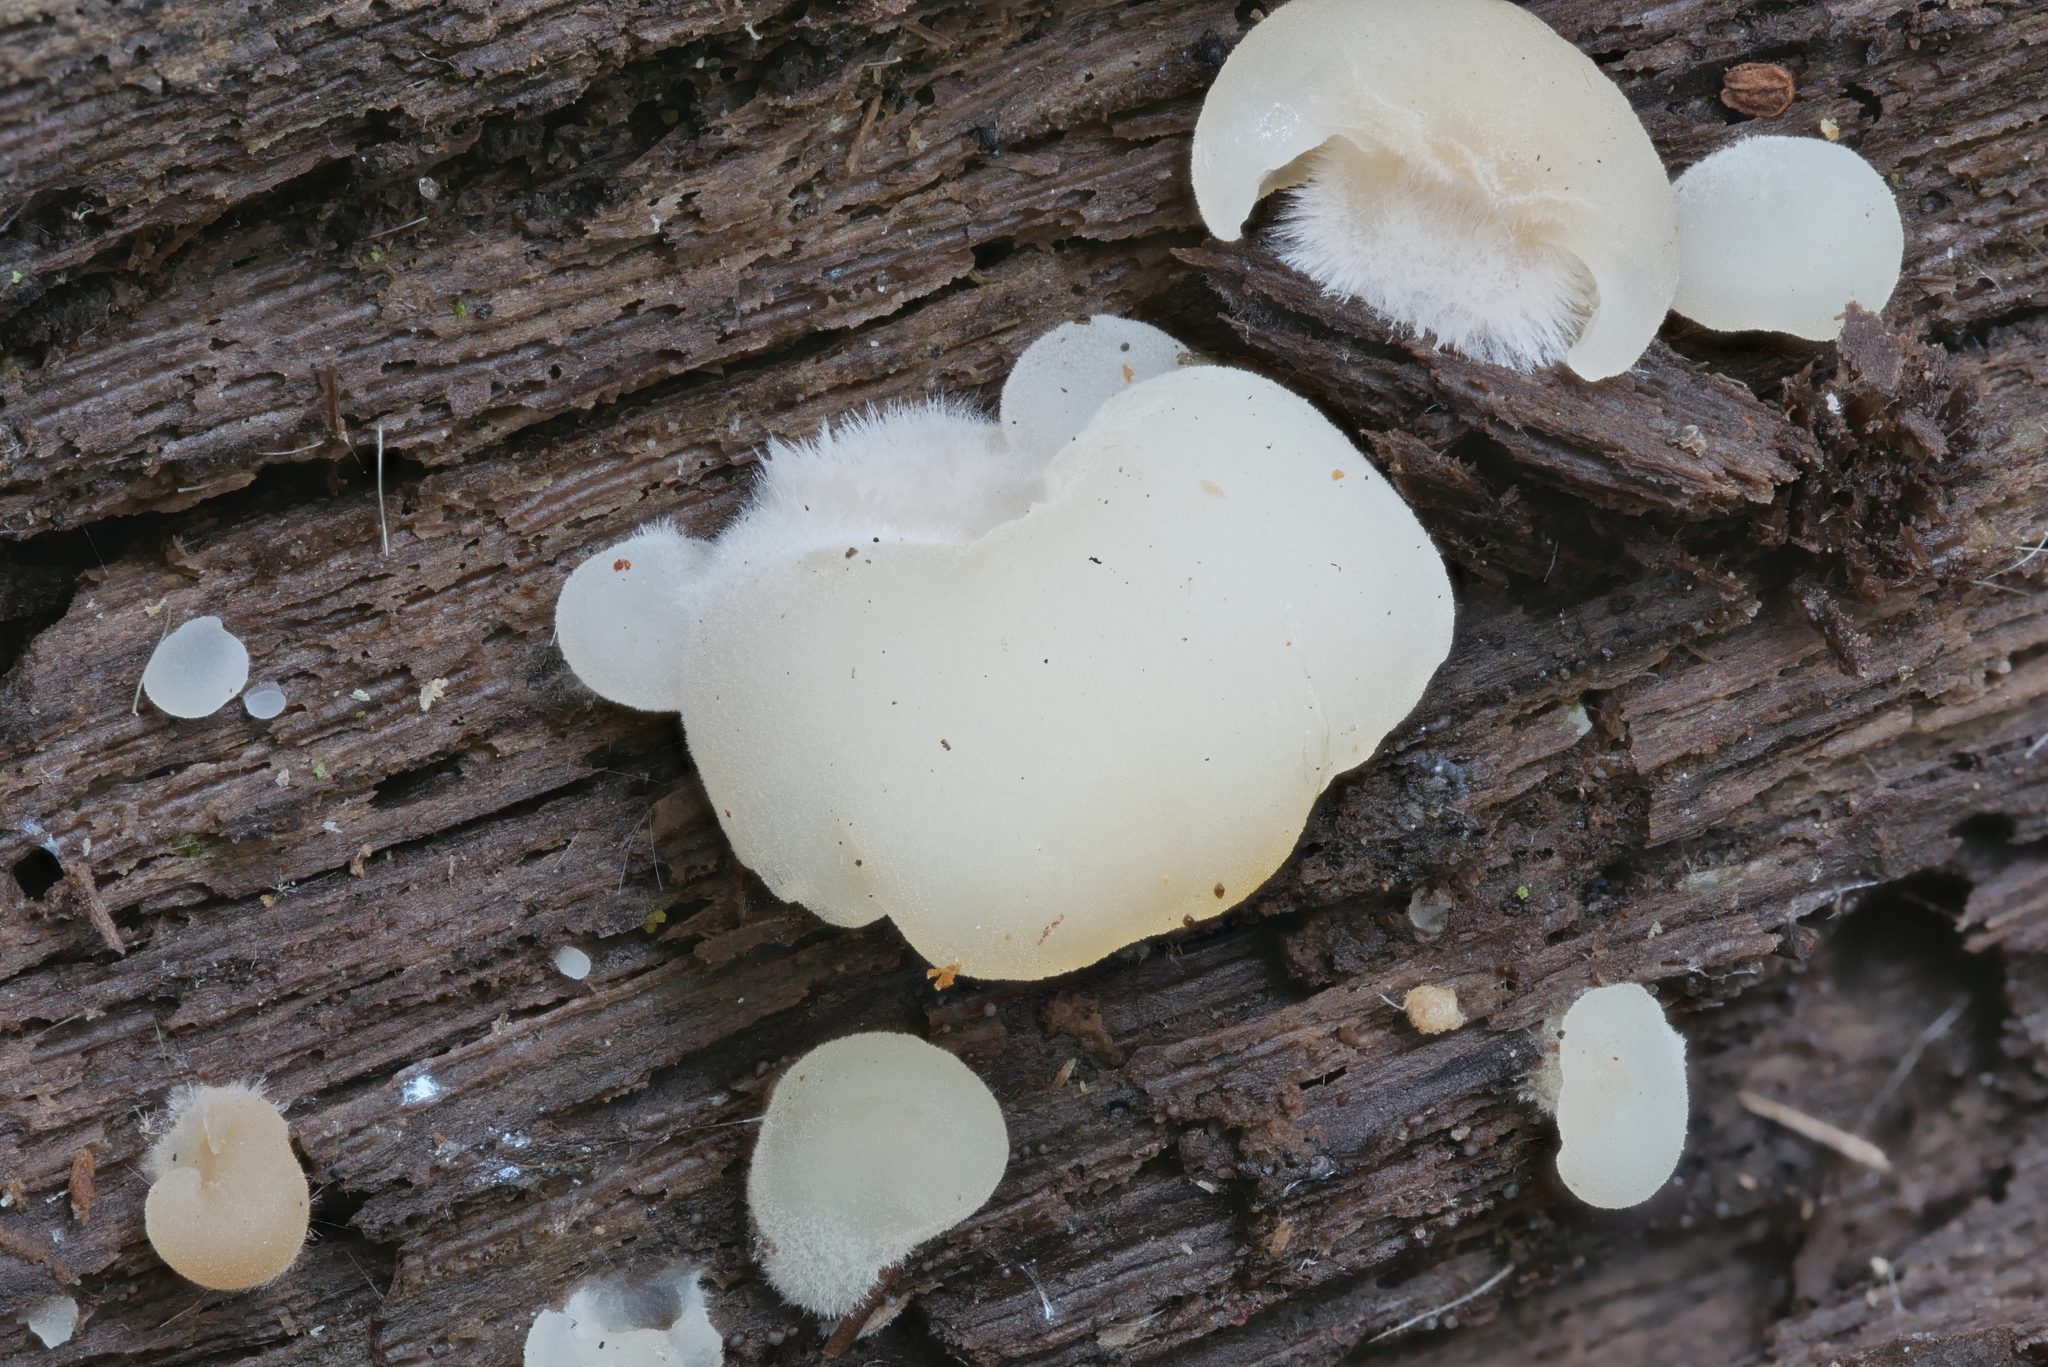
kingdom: Fungi
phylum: Basidiomycota
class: Agaricomycetes
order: Agaricales
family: Crepidotaceae
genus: Crepidotus
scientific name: Crepidotus applanatus
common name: Flat crep
